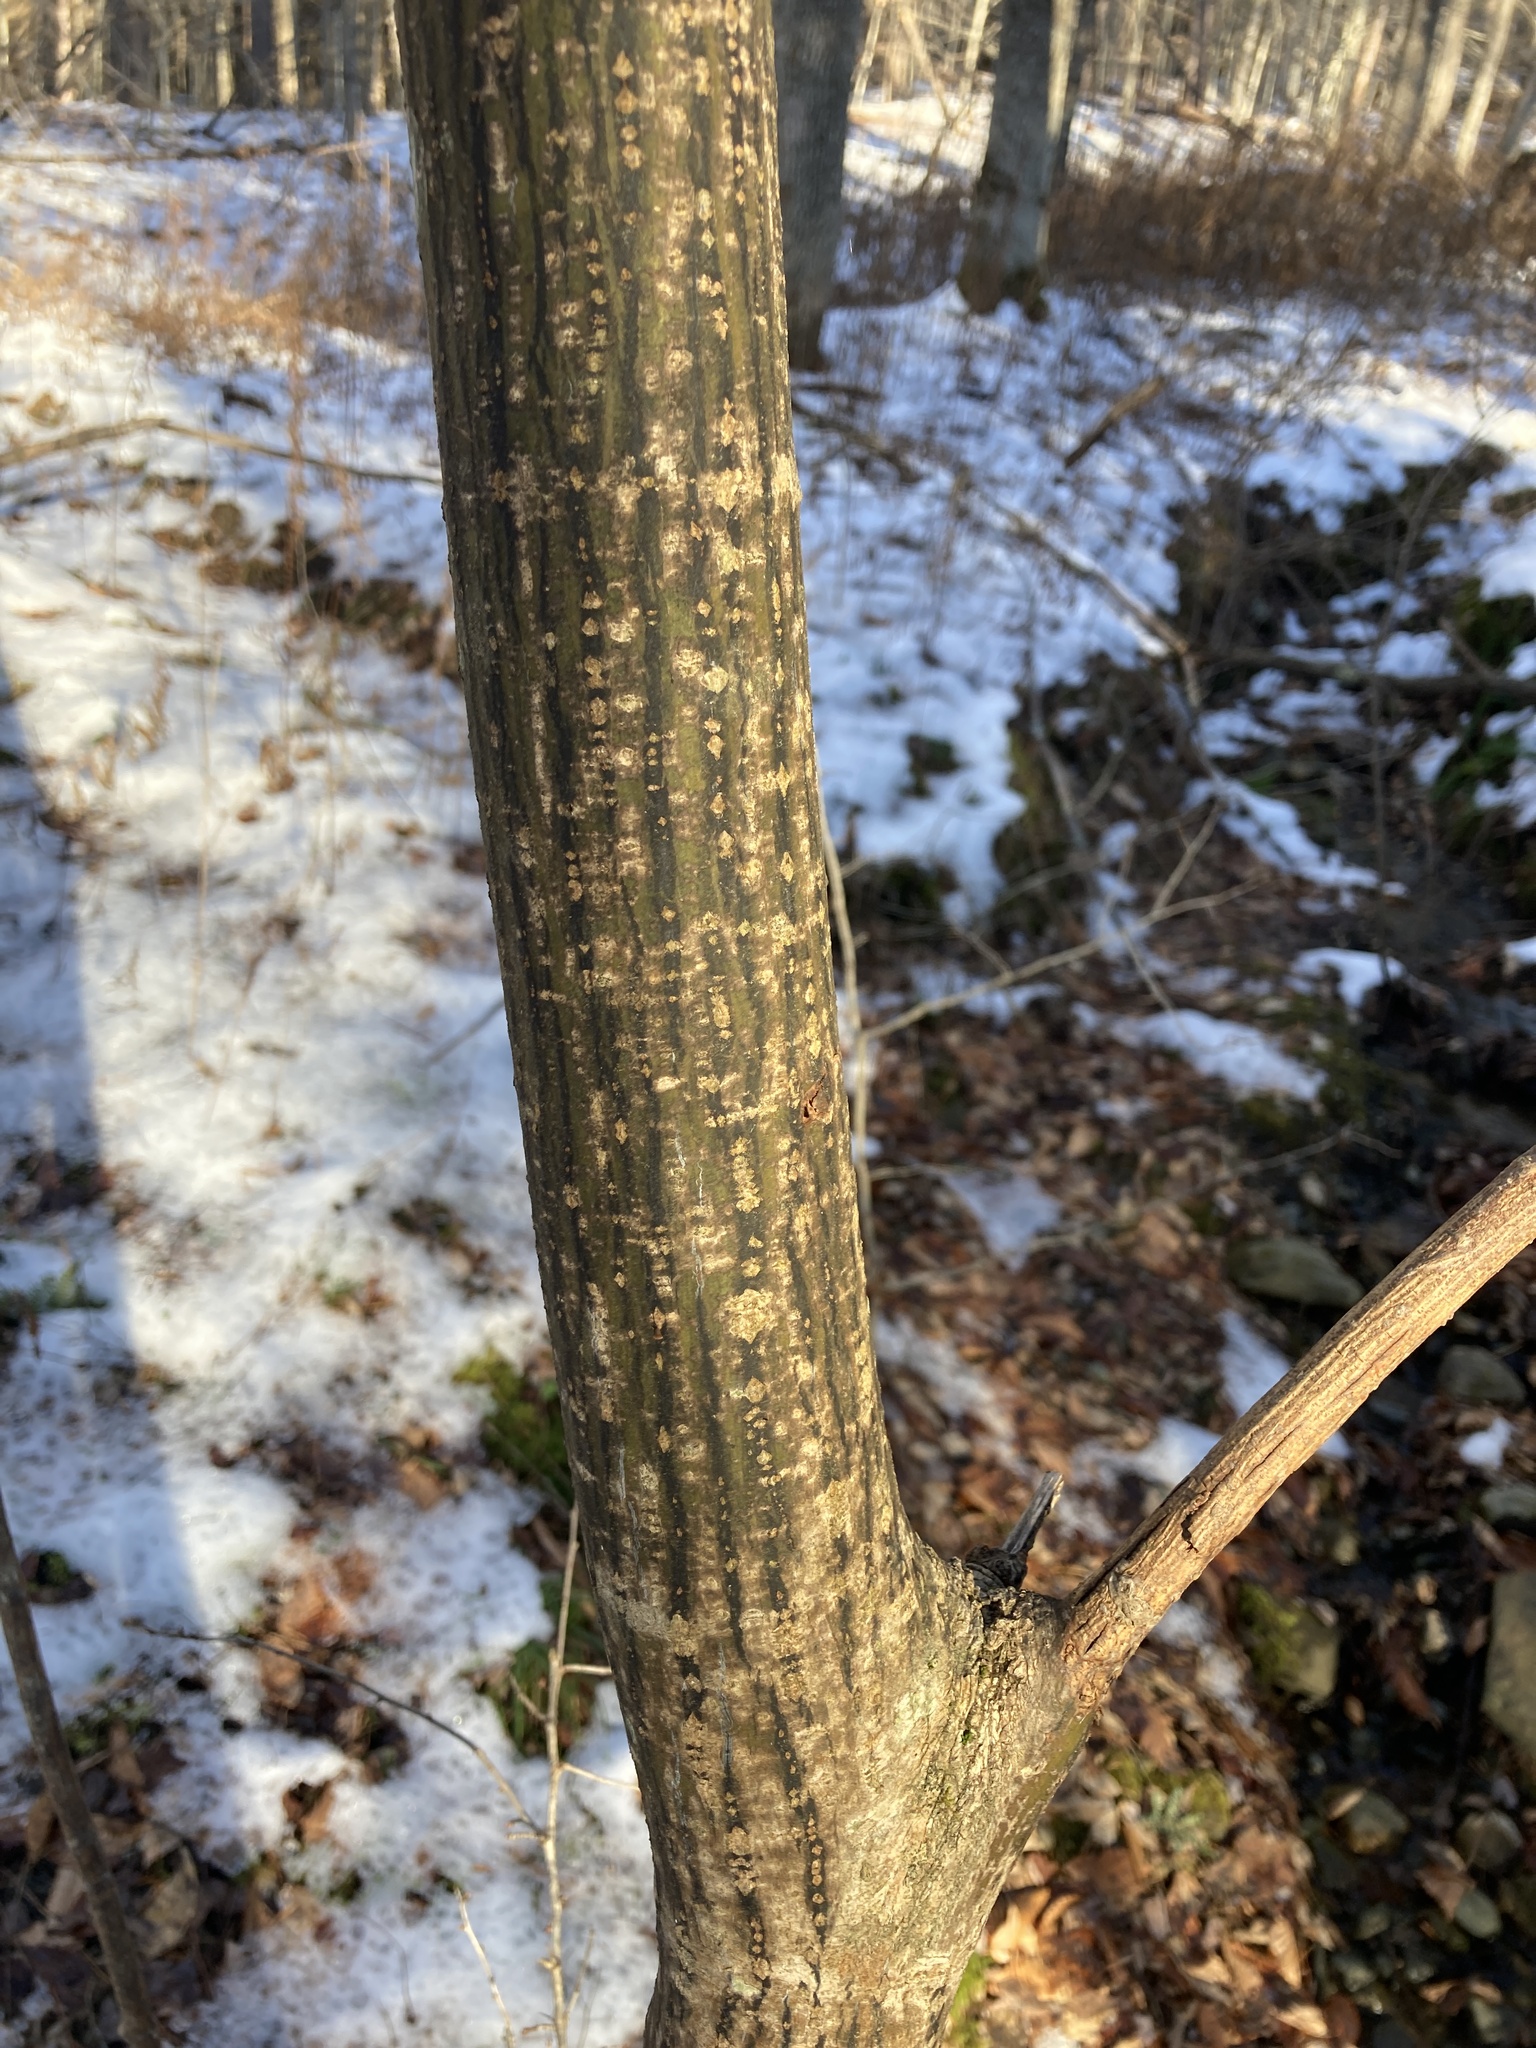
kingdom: Plantae
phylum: Tracheophyta
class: Magnoliopsida
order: Sapindales
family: Sapindaceae
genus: Acer
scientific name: Acer pensylvanicum
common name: Moosewood
